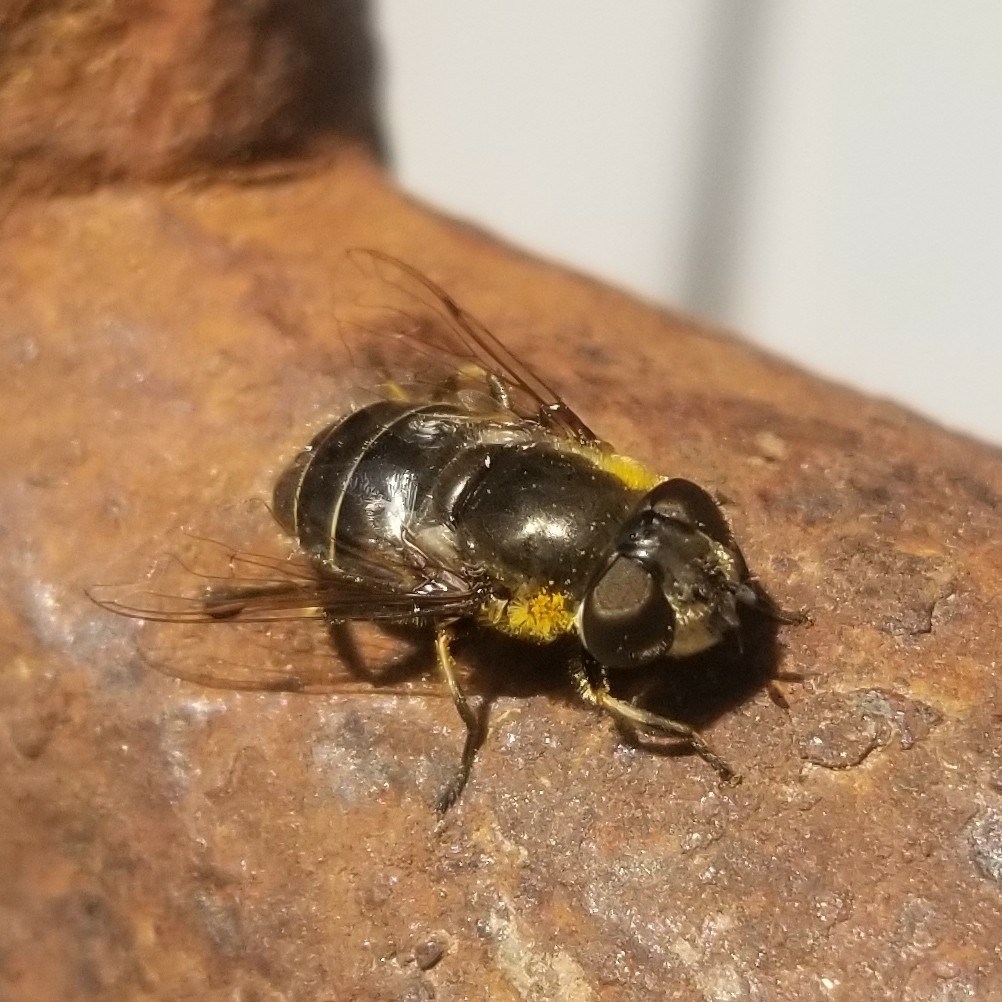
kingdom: Animalia
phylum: Arthropoda
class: Insecta
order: Diptera
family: Syrphidae
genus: Eristalis
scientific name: Eristalis dimidiata
